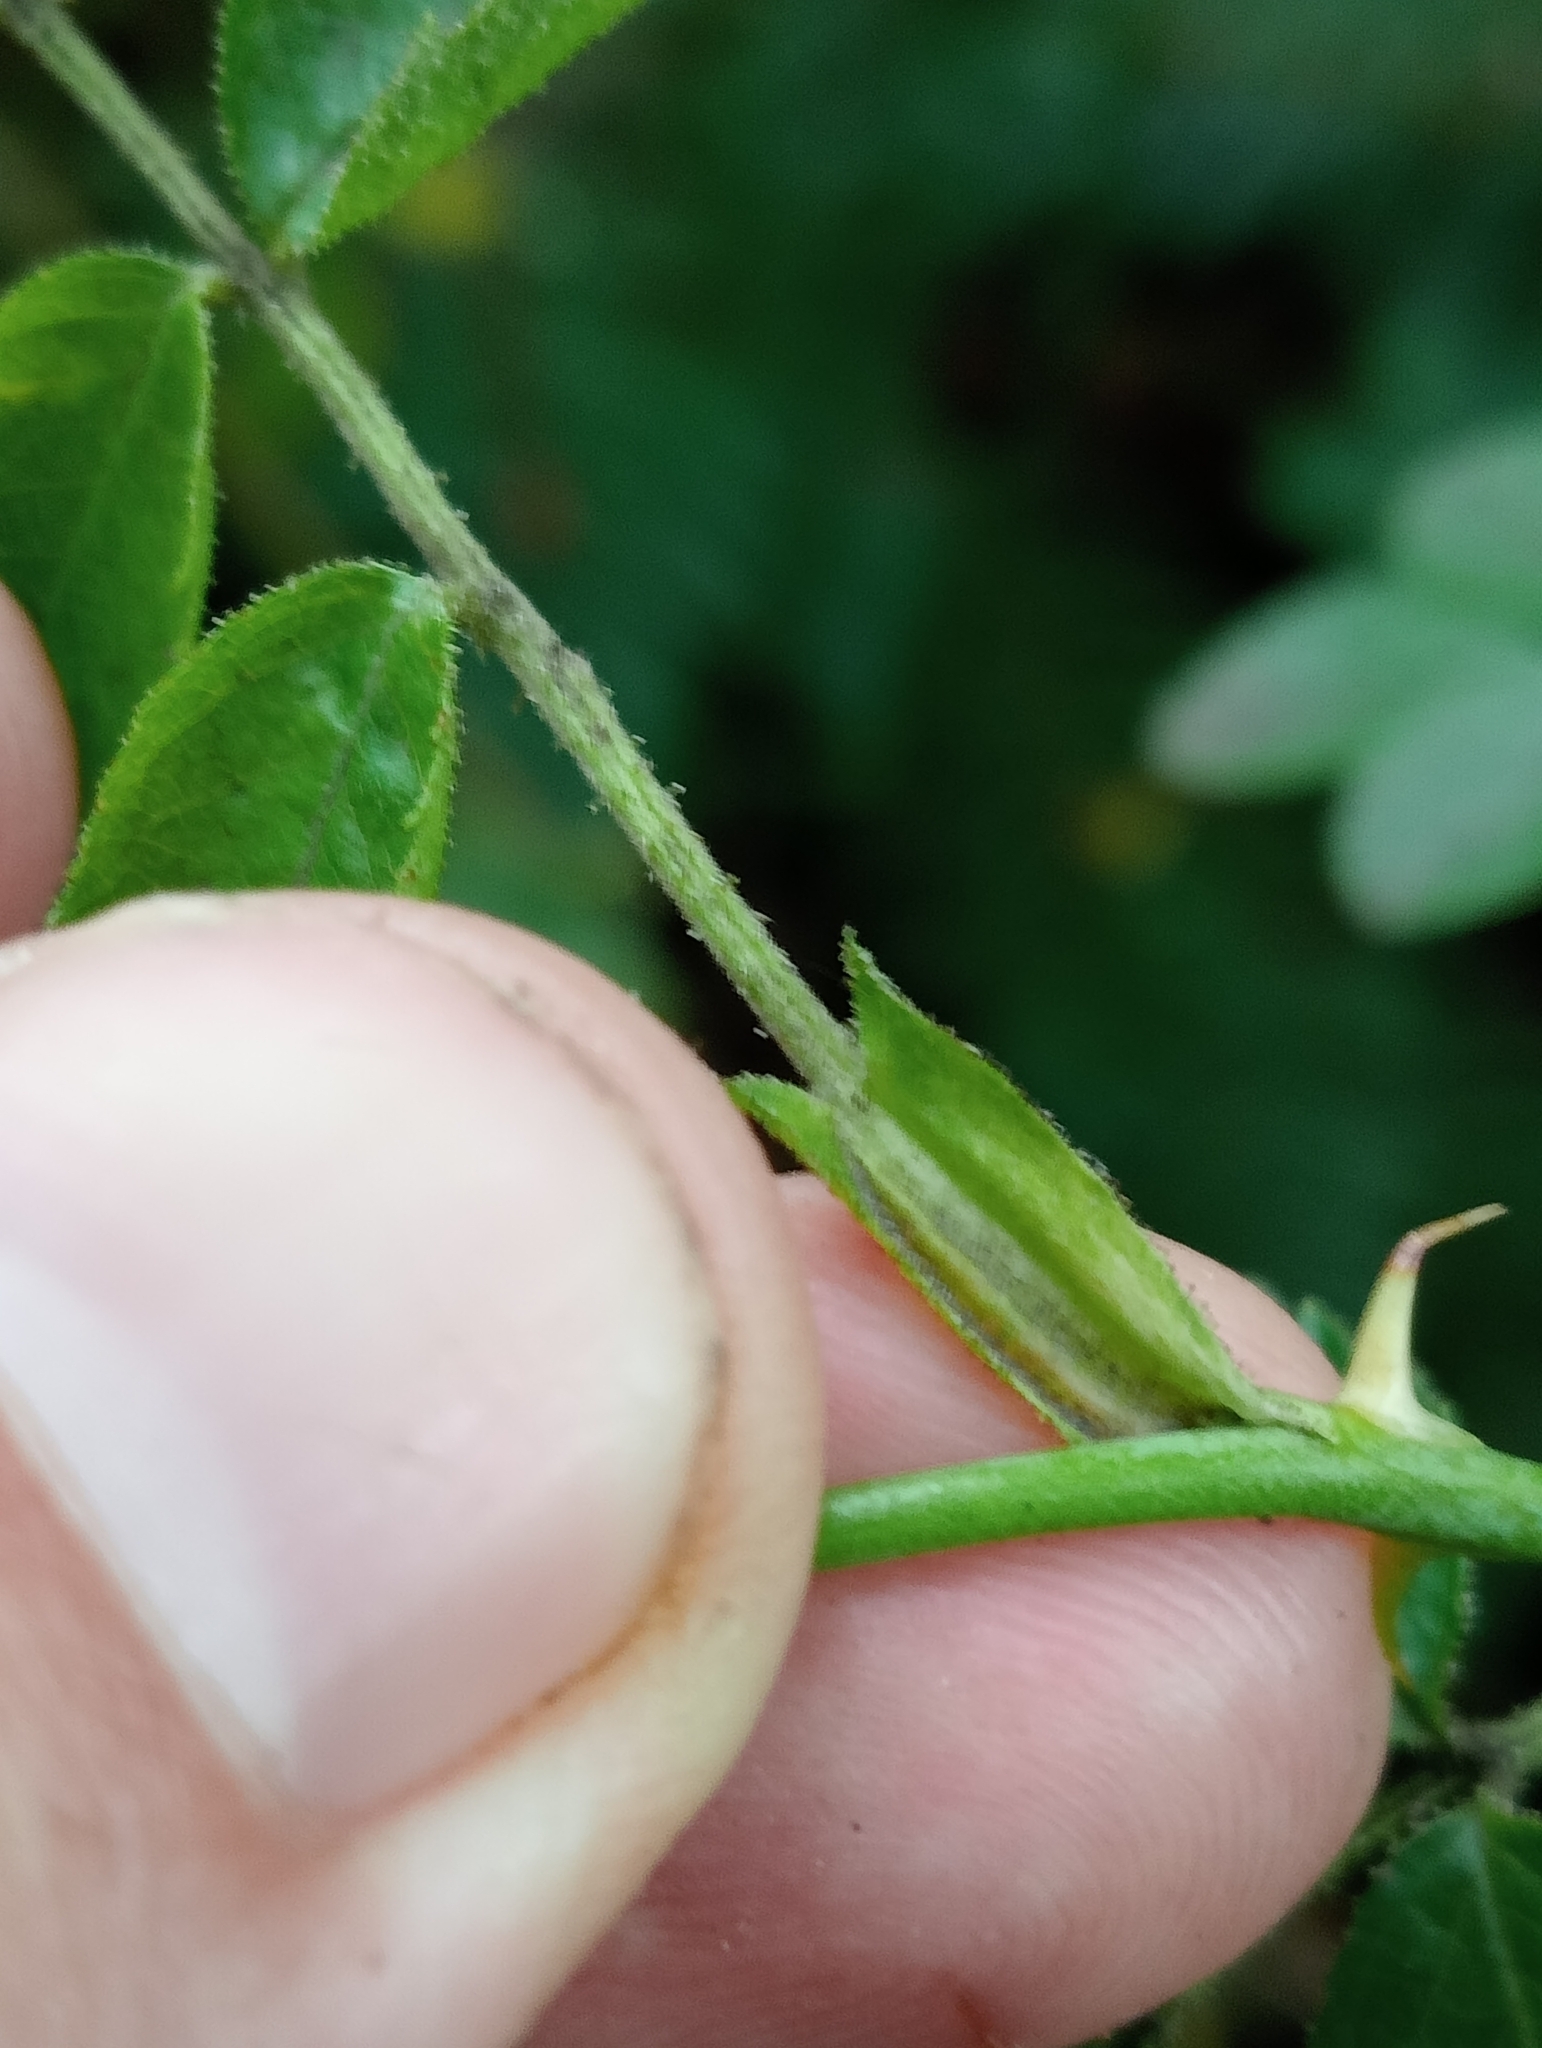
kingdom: Plantae
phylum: Tracheophyta
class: Magnoliopsida
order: Rosales
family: Rosaceae
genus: Rosa
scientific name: Rosa rubiginosa
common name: Sweet-briar
